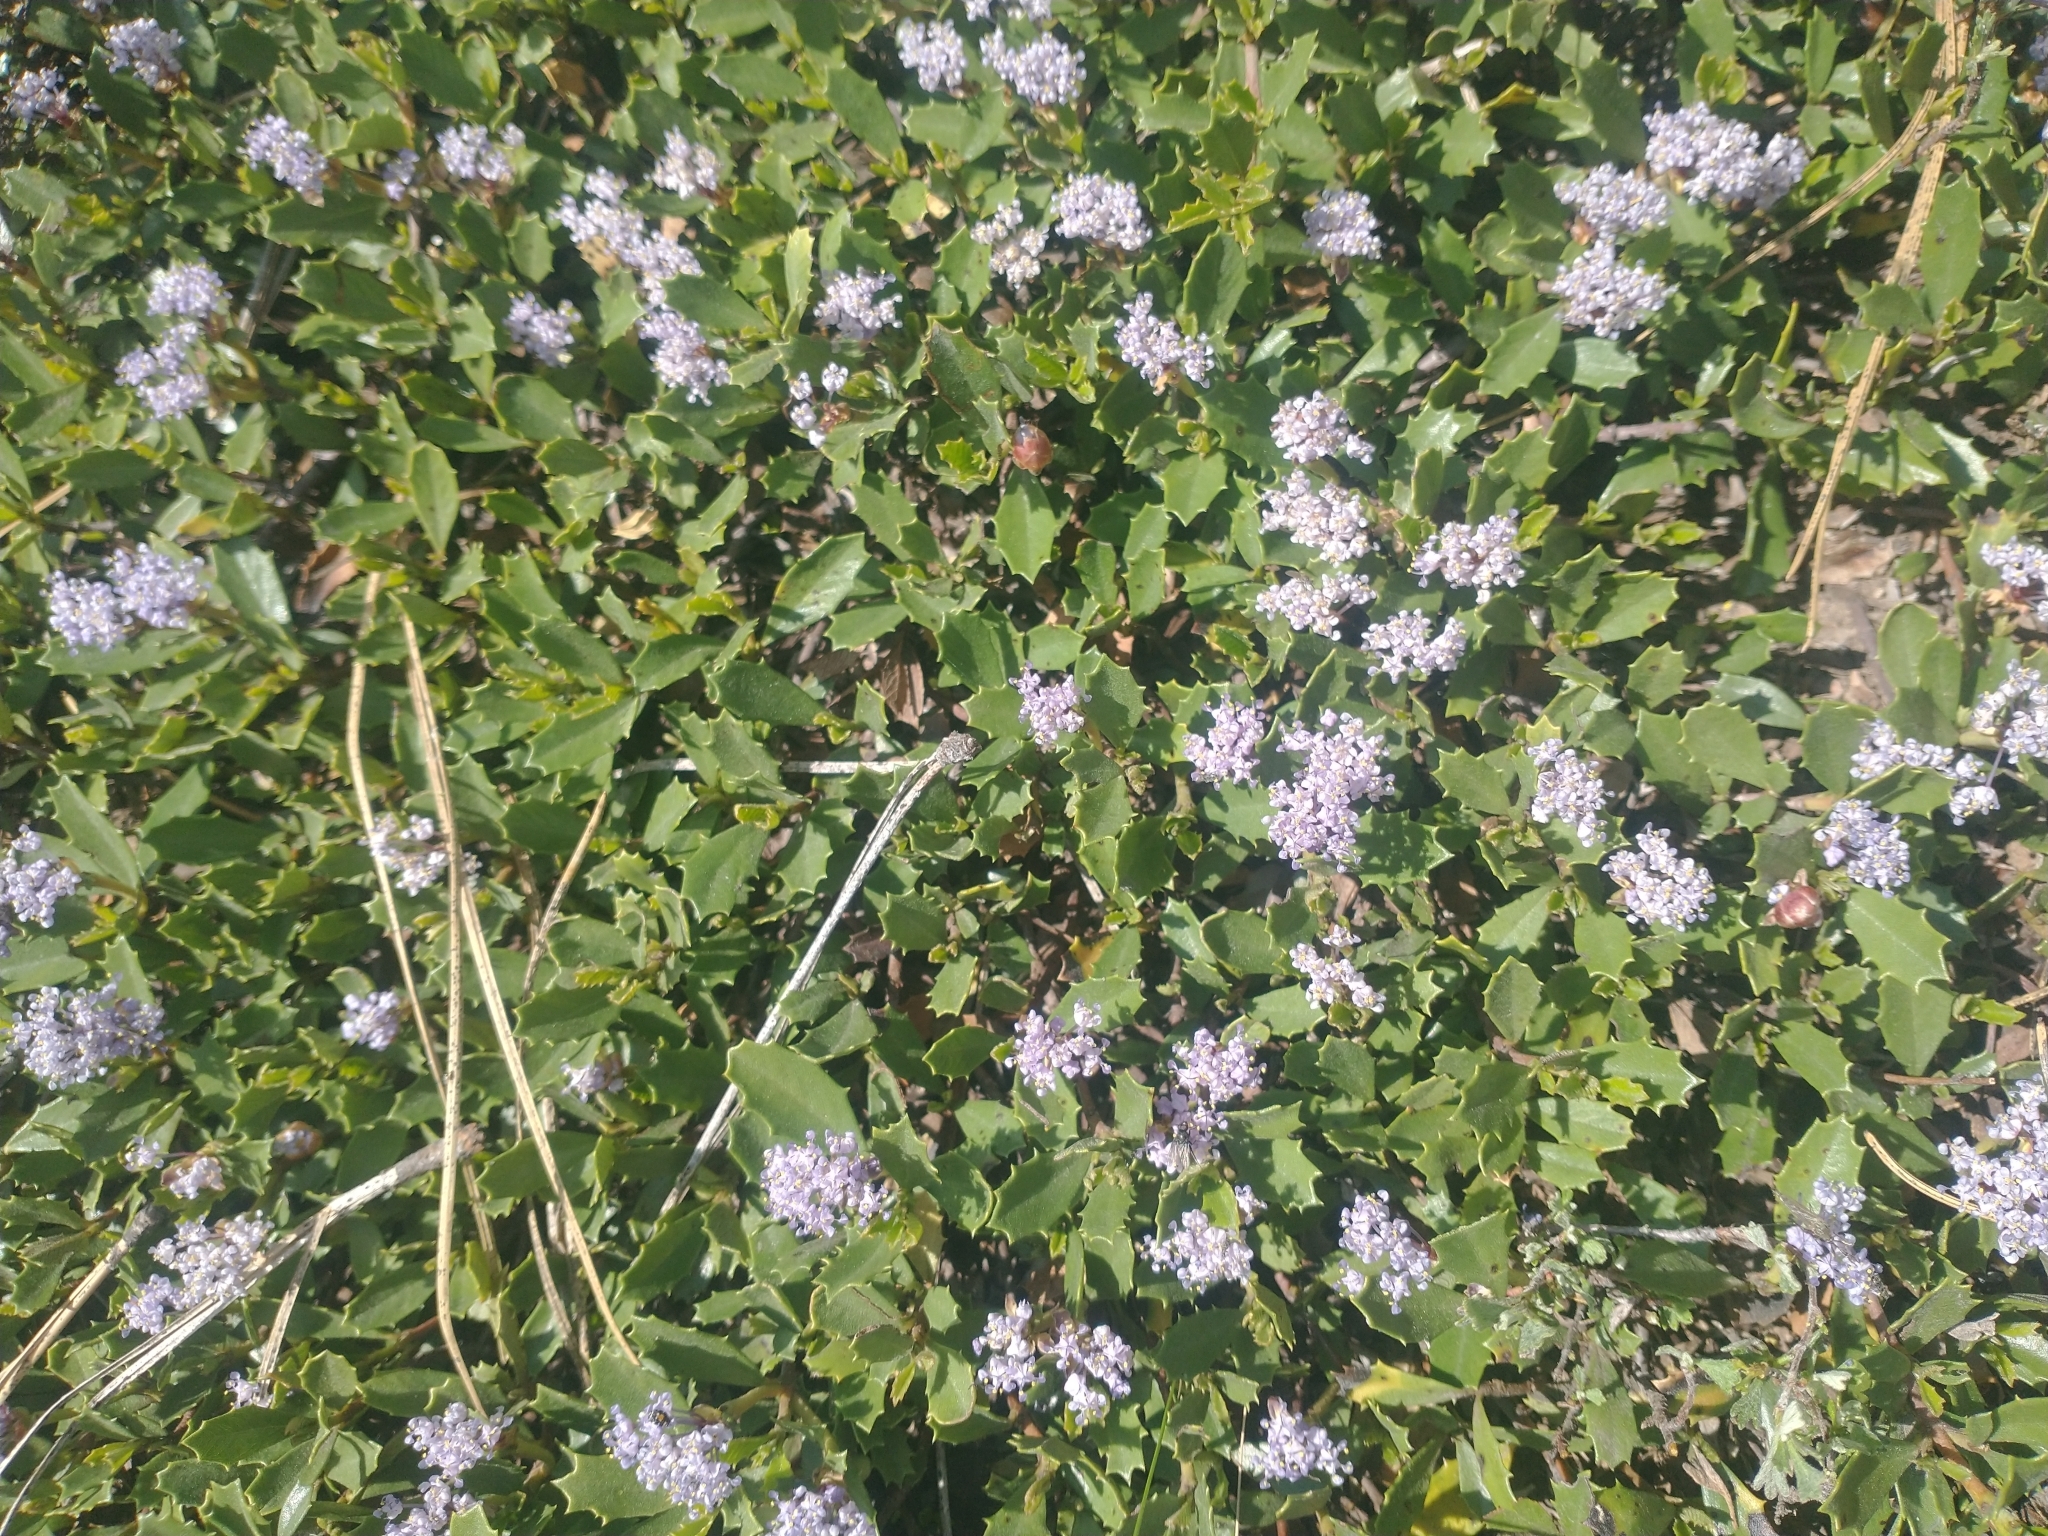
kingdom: Plantae
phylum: Tracheophyta
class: Magnoliopsida
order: Rosales
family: Rhamnaceae
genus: Ceanothus
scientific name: Ceanothus prostratus
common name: Mahala-mat
